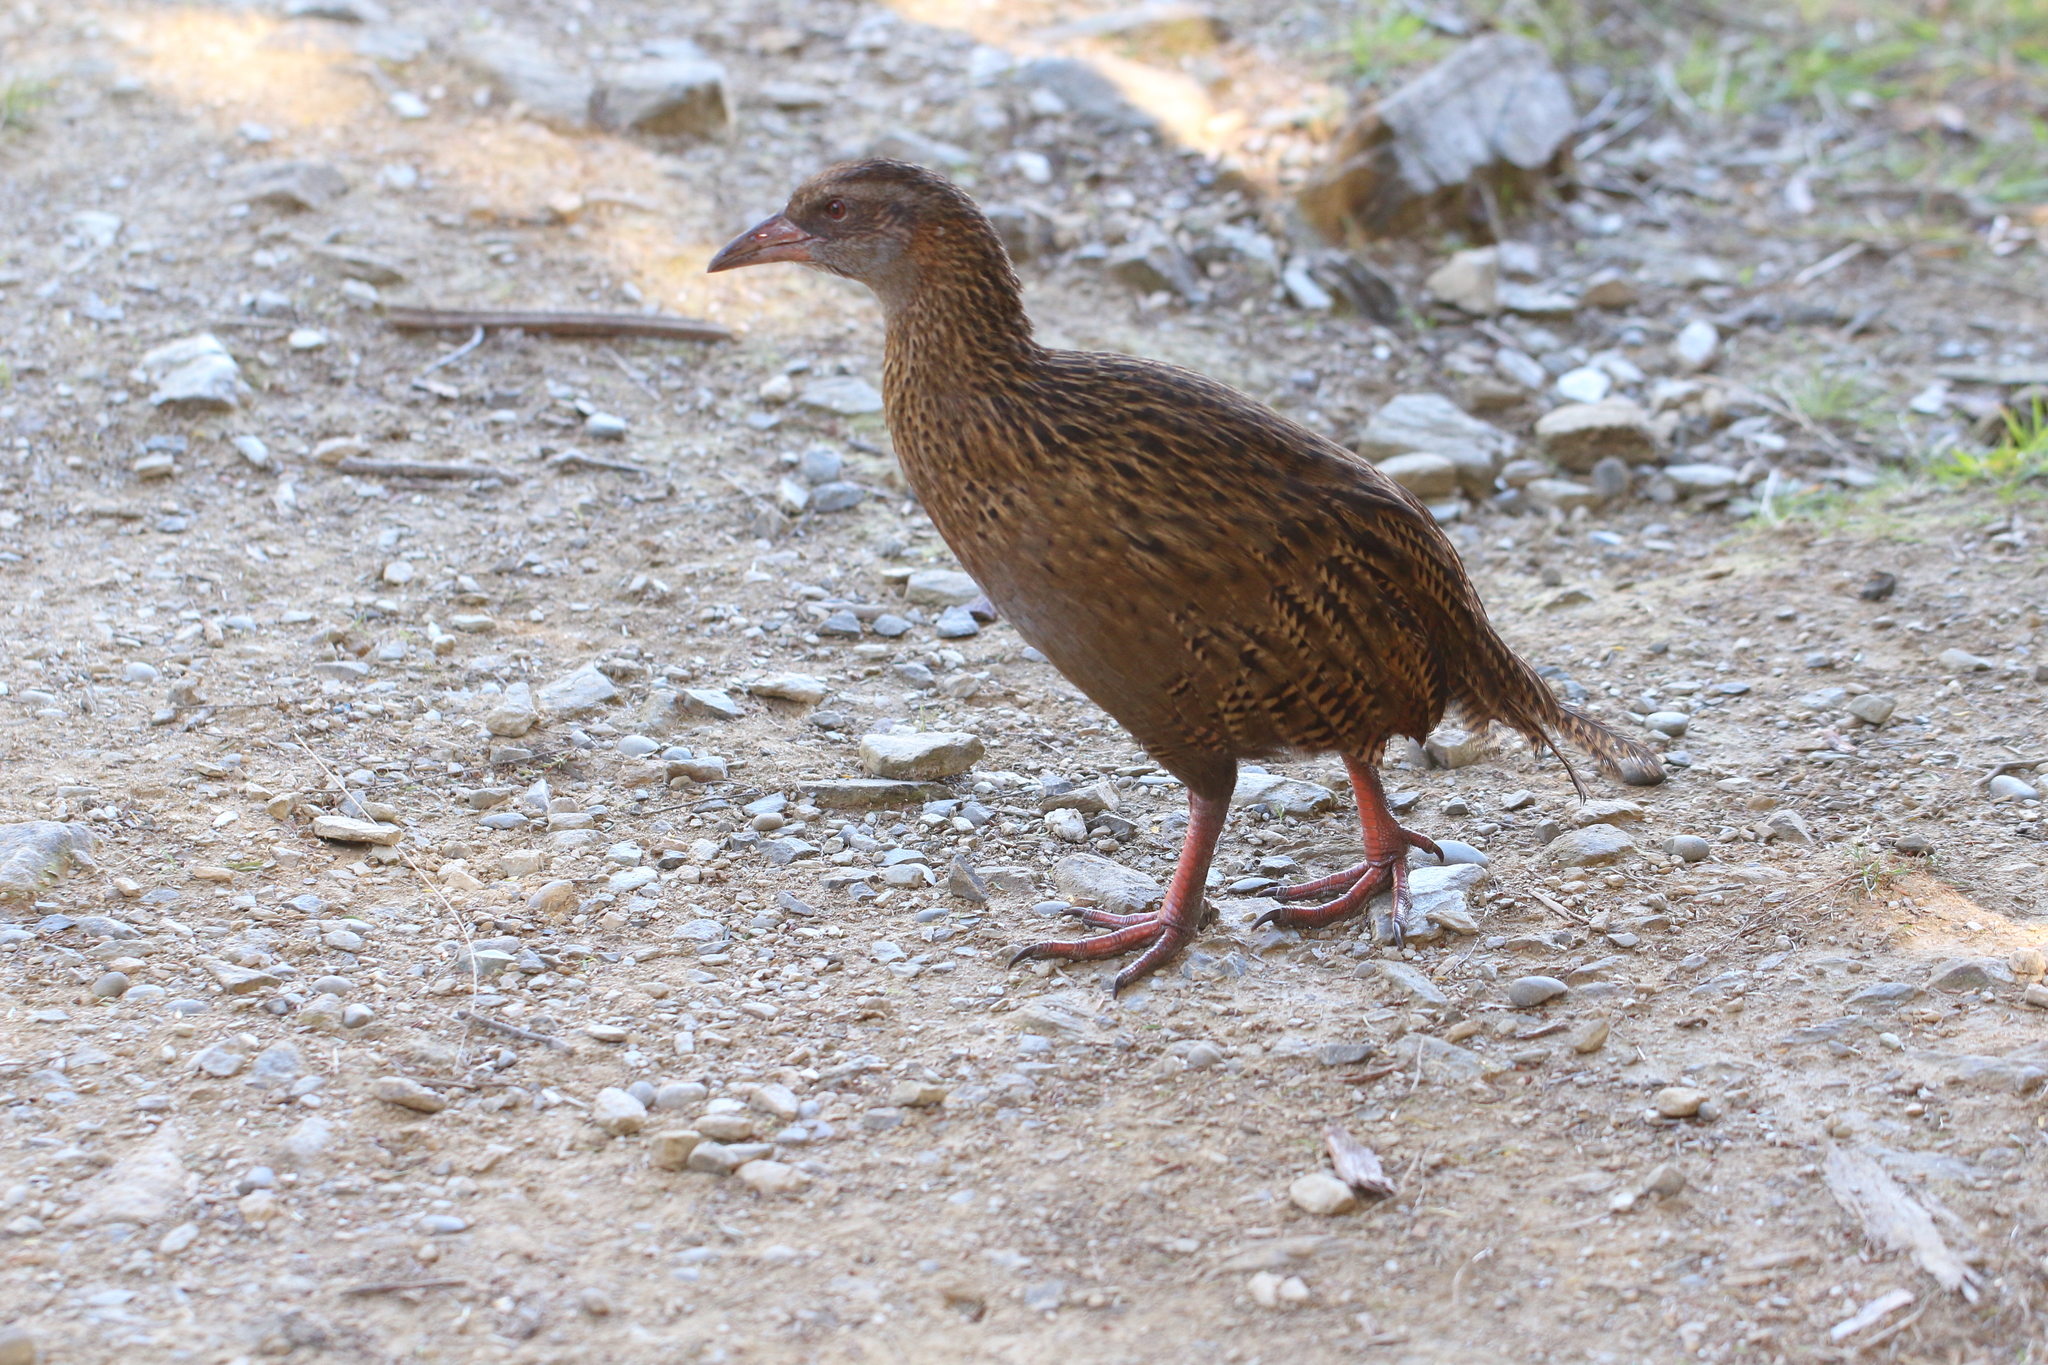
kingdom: Animalia
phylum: Chordata
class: Aves
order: Gruiformes
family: Rallidae
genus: Gallirallus
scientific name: Gallirallus australis
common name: Weka
